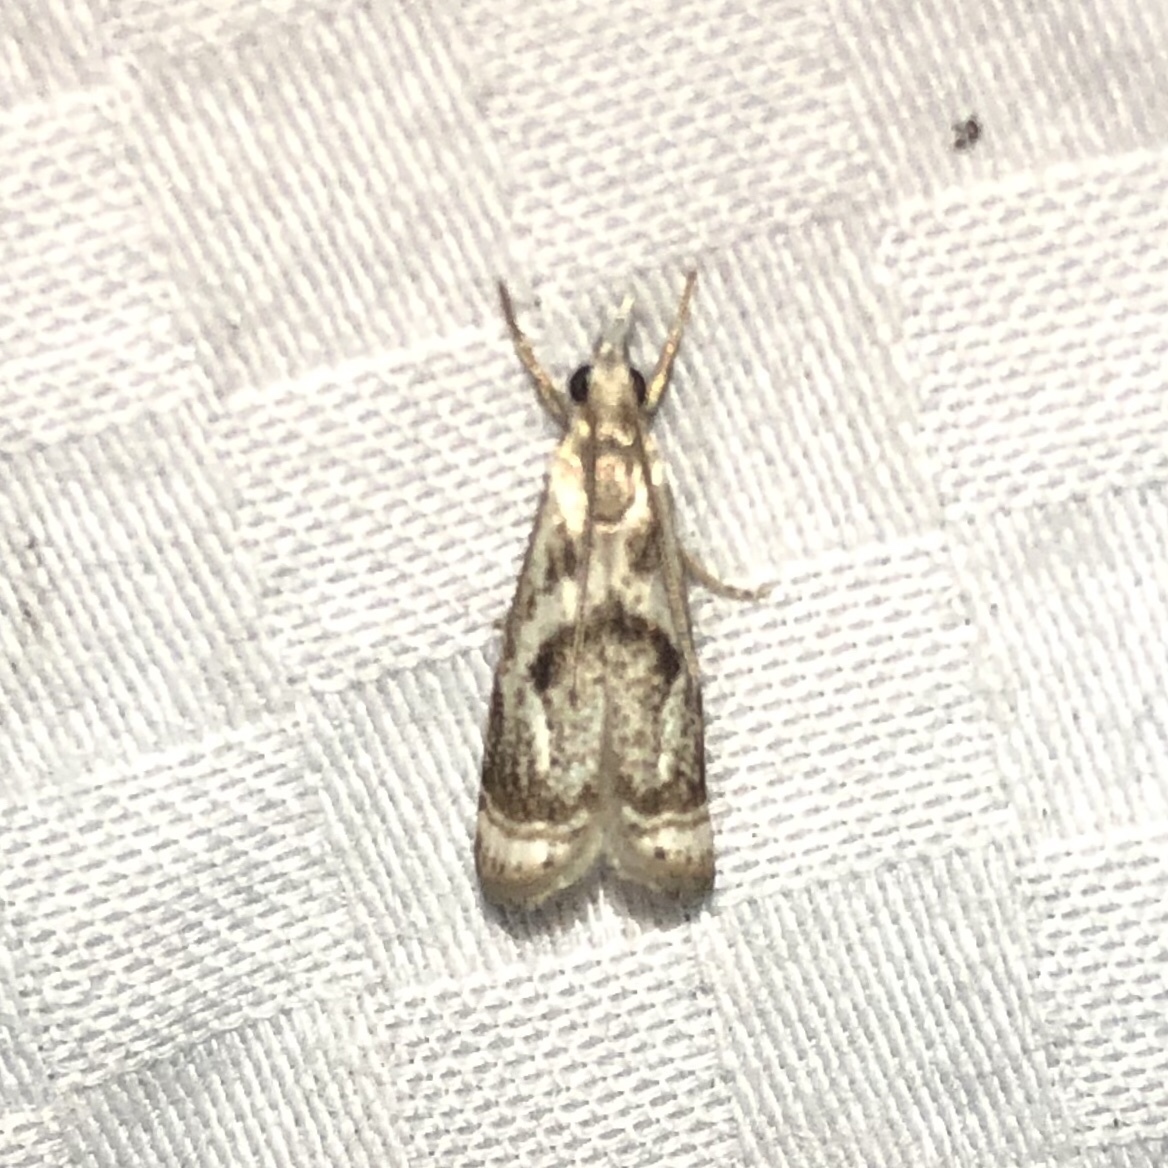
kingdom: Animalia
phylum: Arthropoda
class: Insecta
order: Lepidoptera
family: Crambidae
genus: Microcrambus
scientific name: Microcrambus elegans
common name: Elegant grass-veneer
